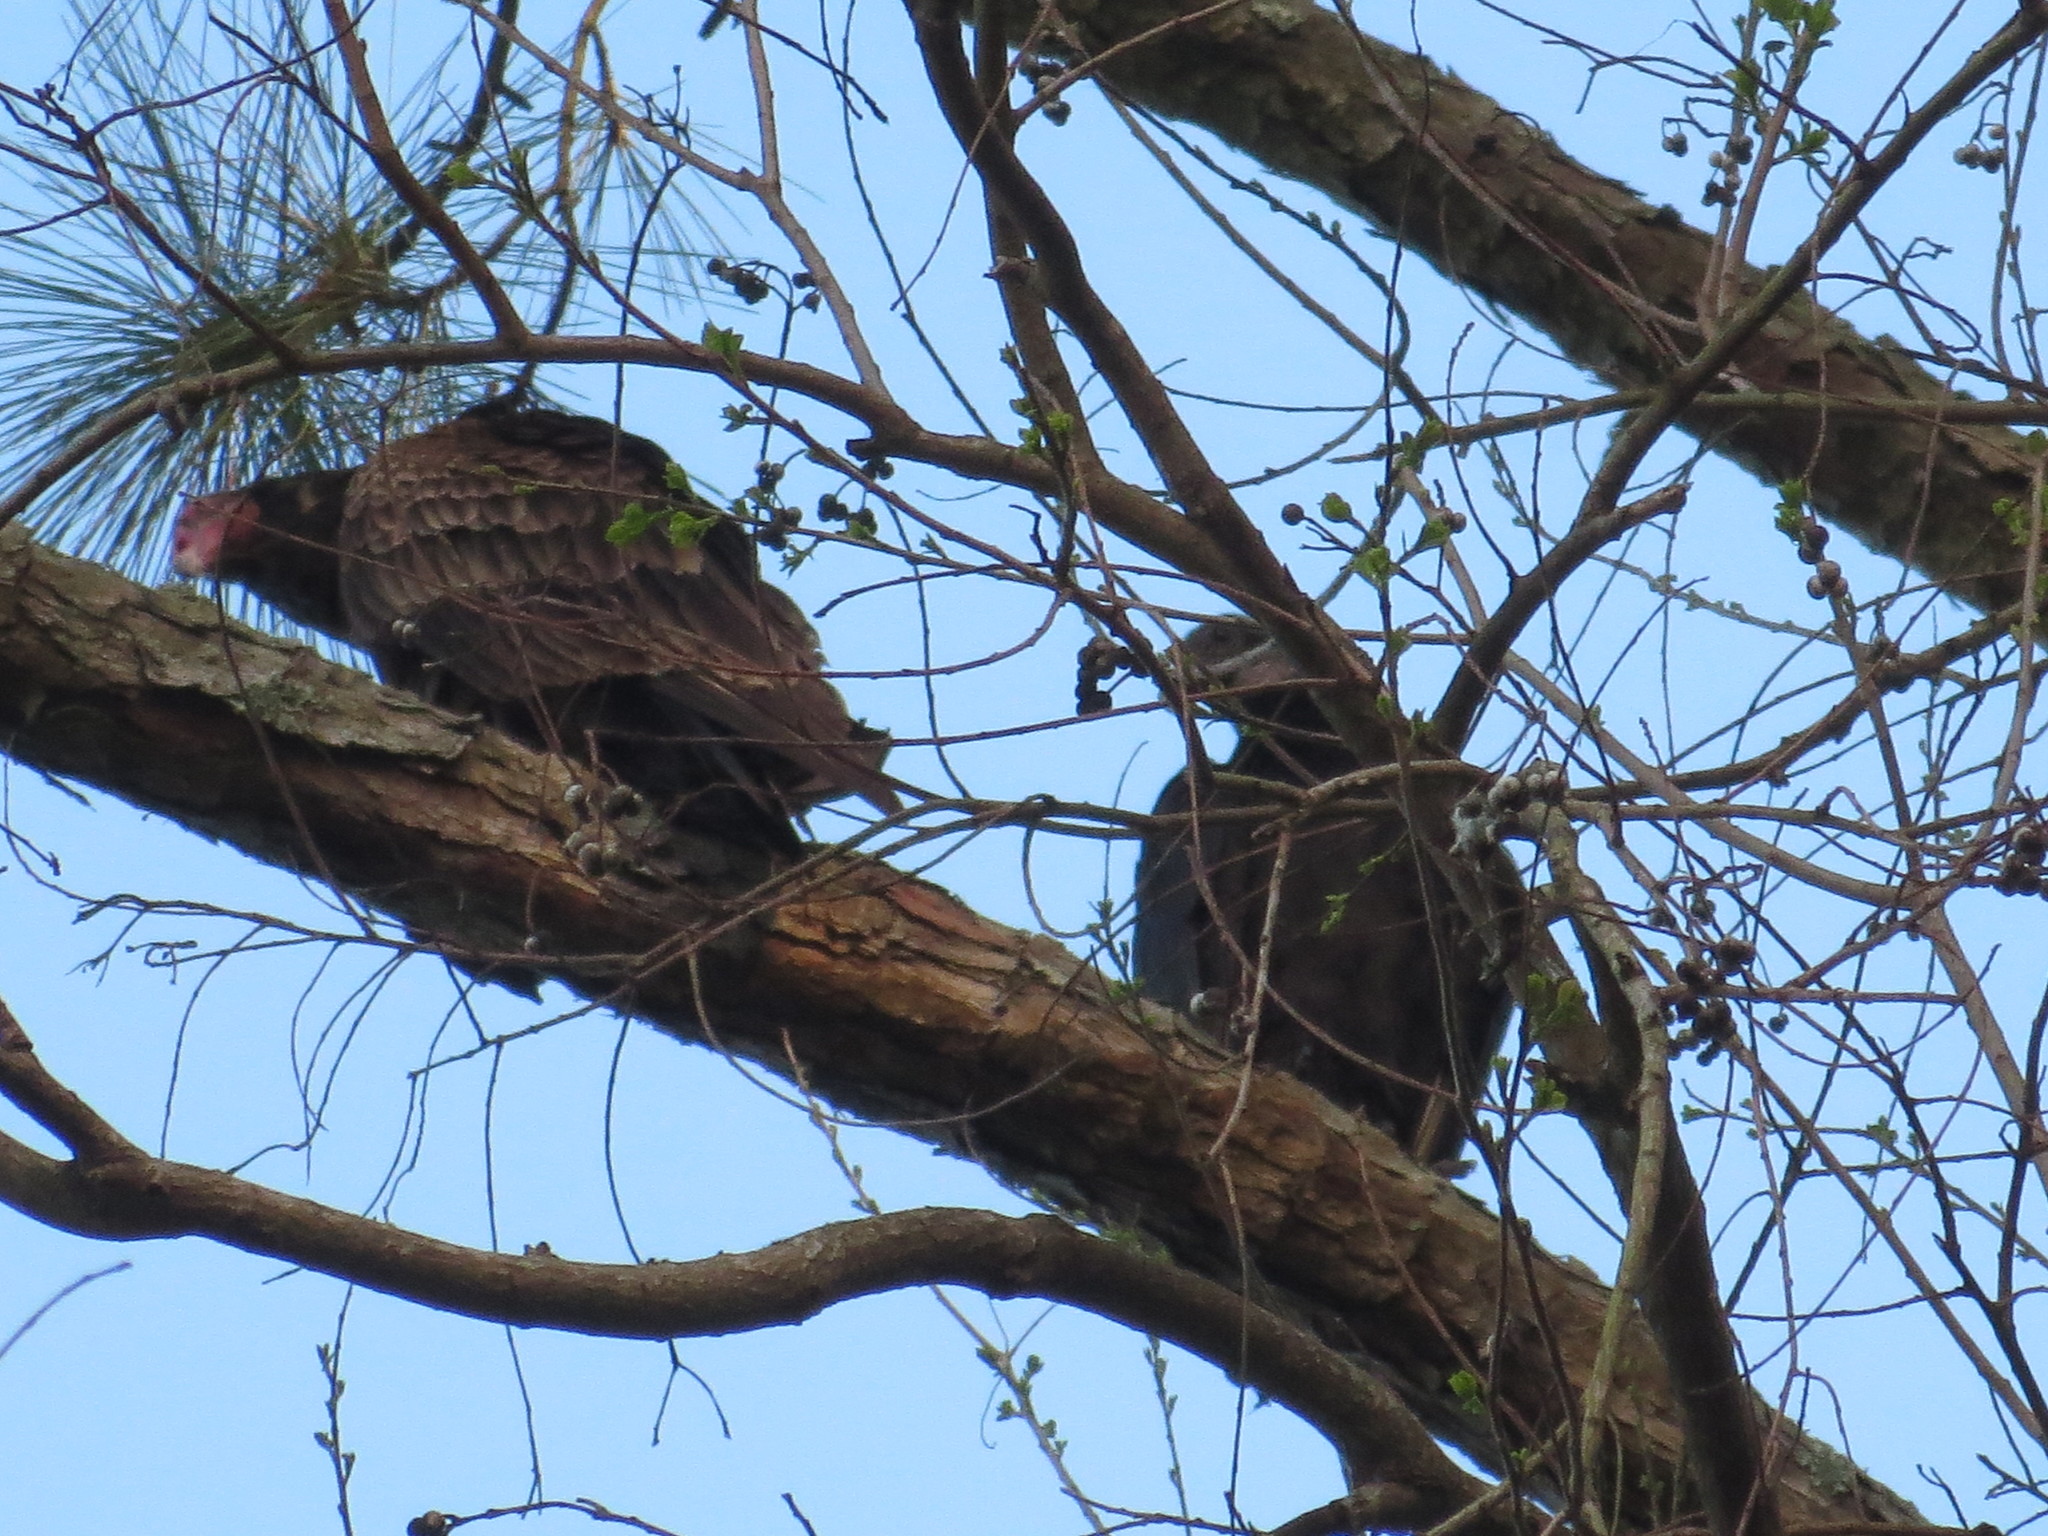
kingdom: Animalia
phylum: Chordata
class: Aves
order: Accipitriformes
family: Cathartidae
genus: Cathartes
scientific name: Cathartes aura
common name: Turkey vulture
